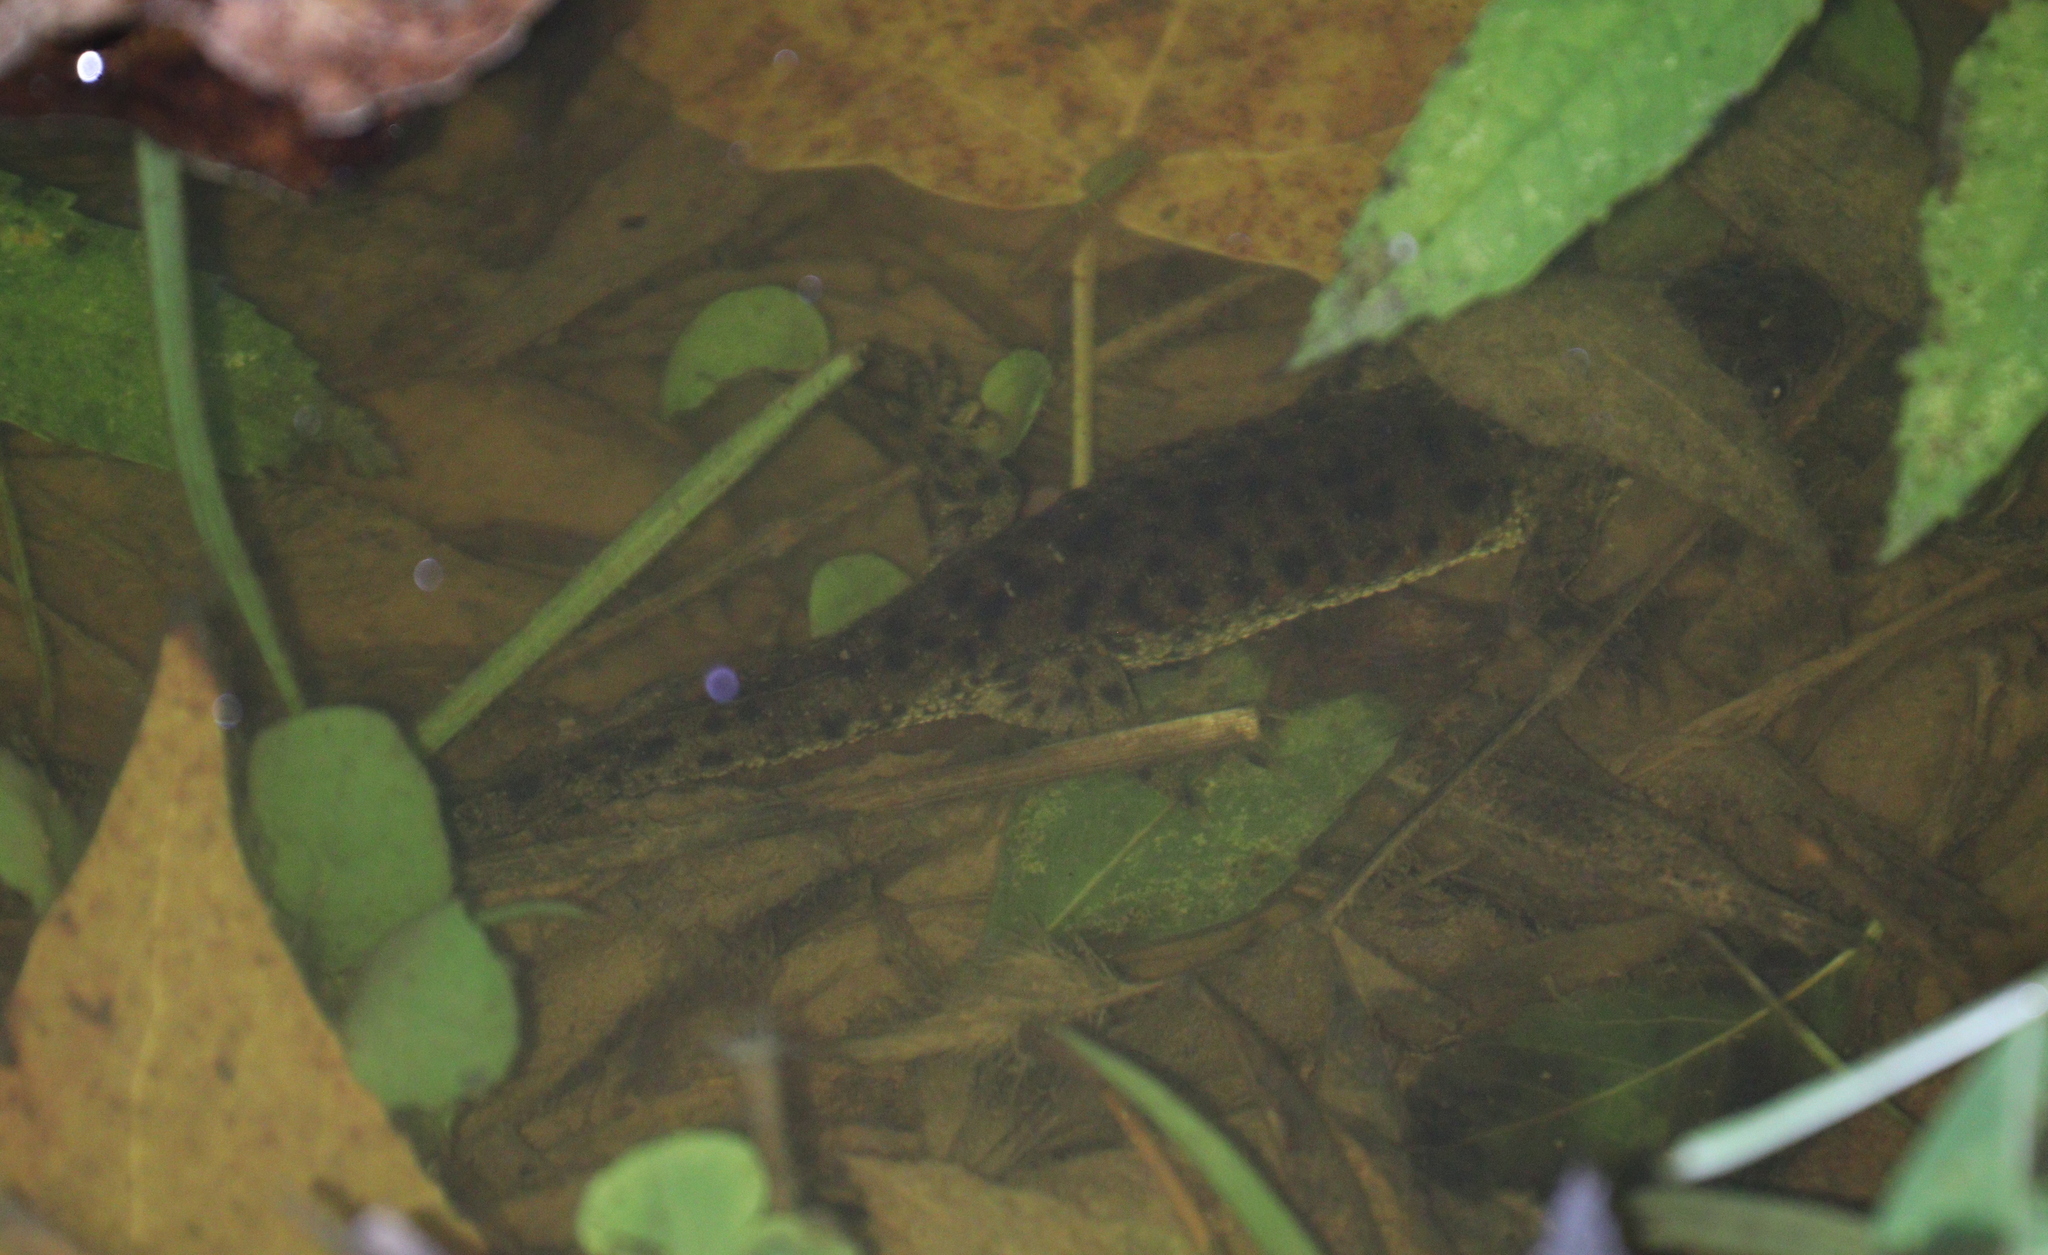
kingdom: Animalia
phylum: Chordata
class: Amphibia
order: Caudata
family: Salamandridae
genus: Pleurodeles
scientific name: Pleurodeles waltl
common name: Iberian ribbed newt
